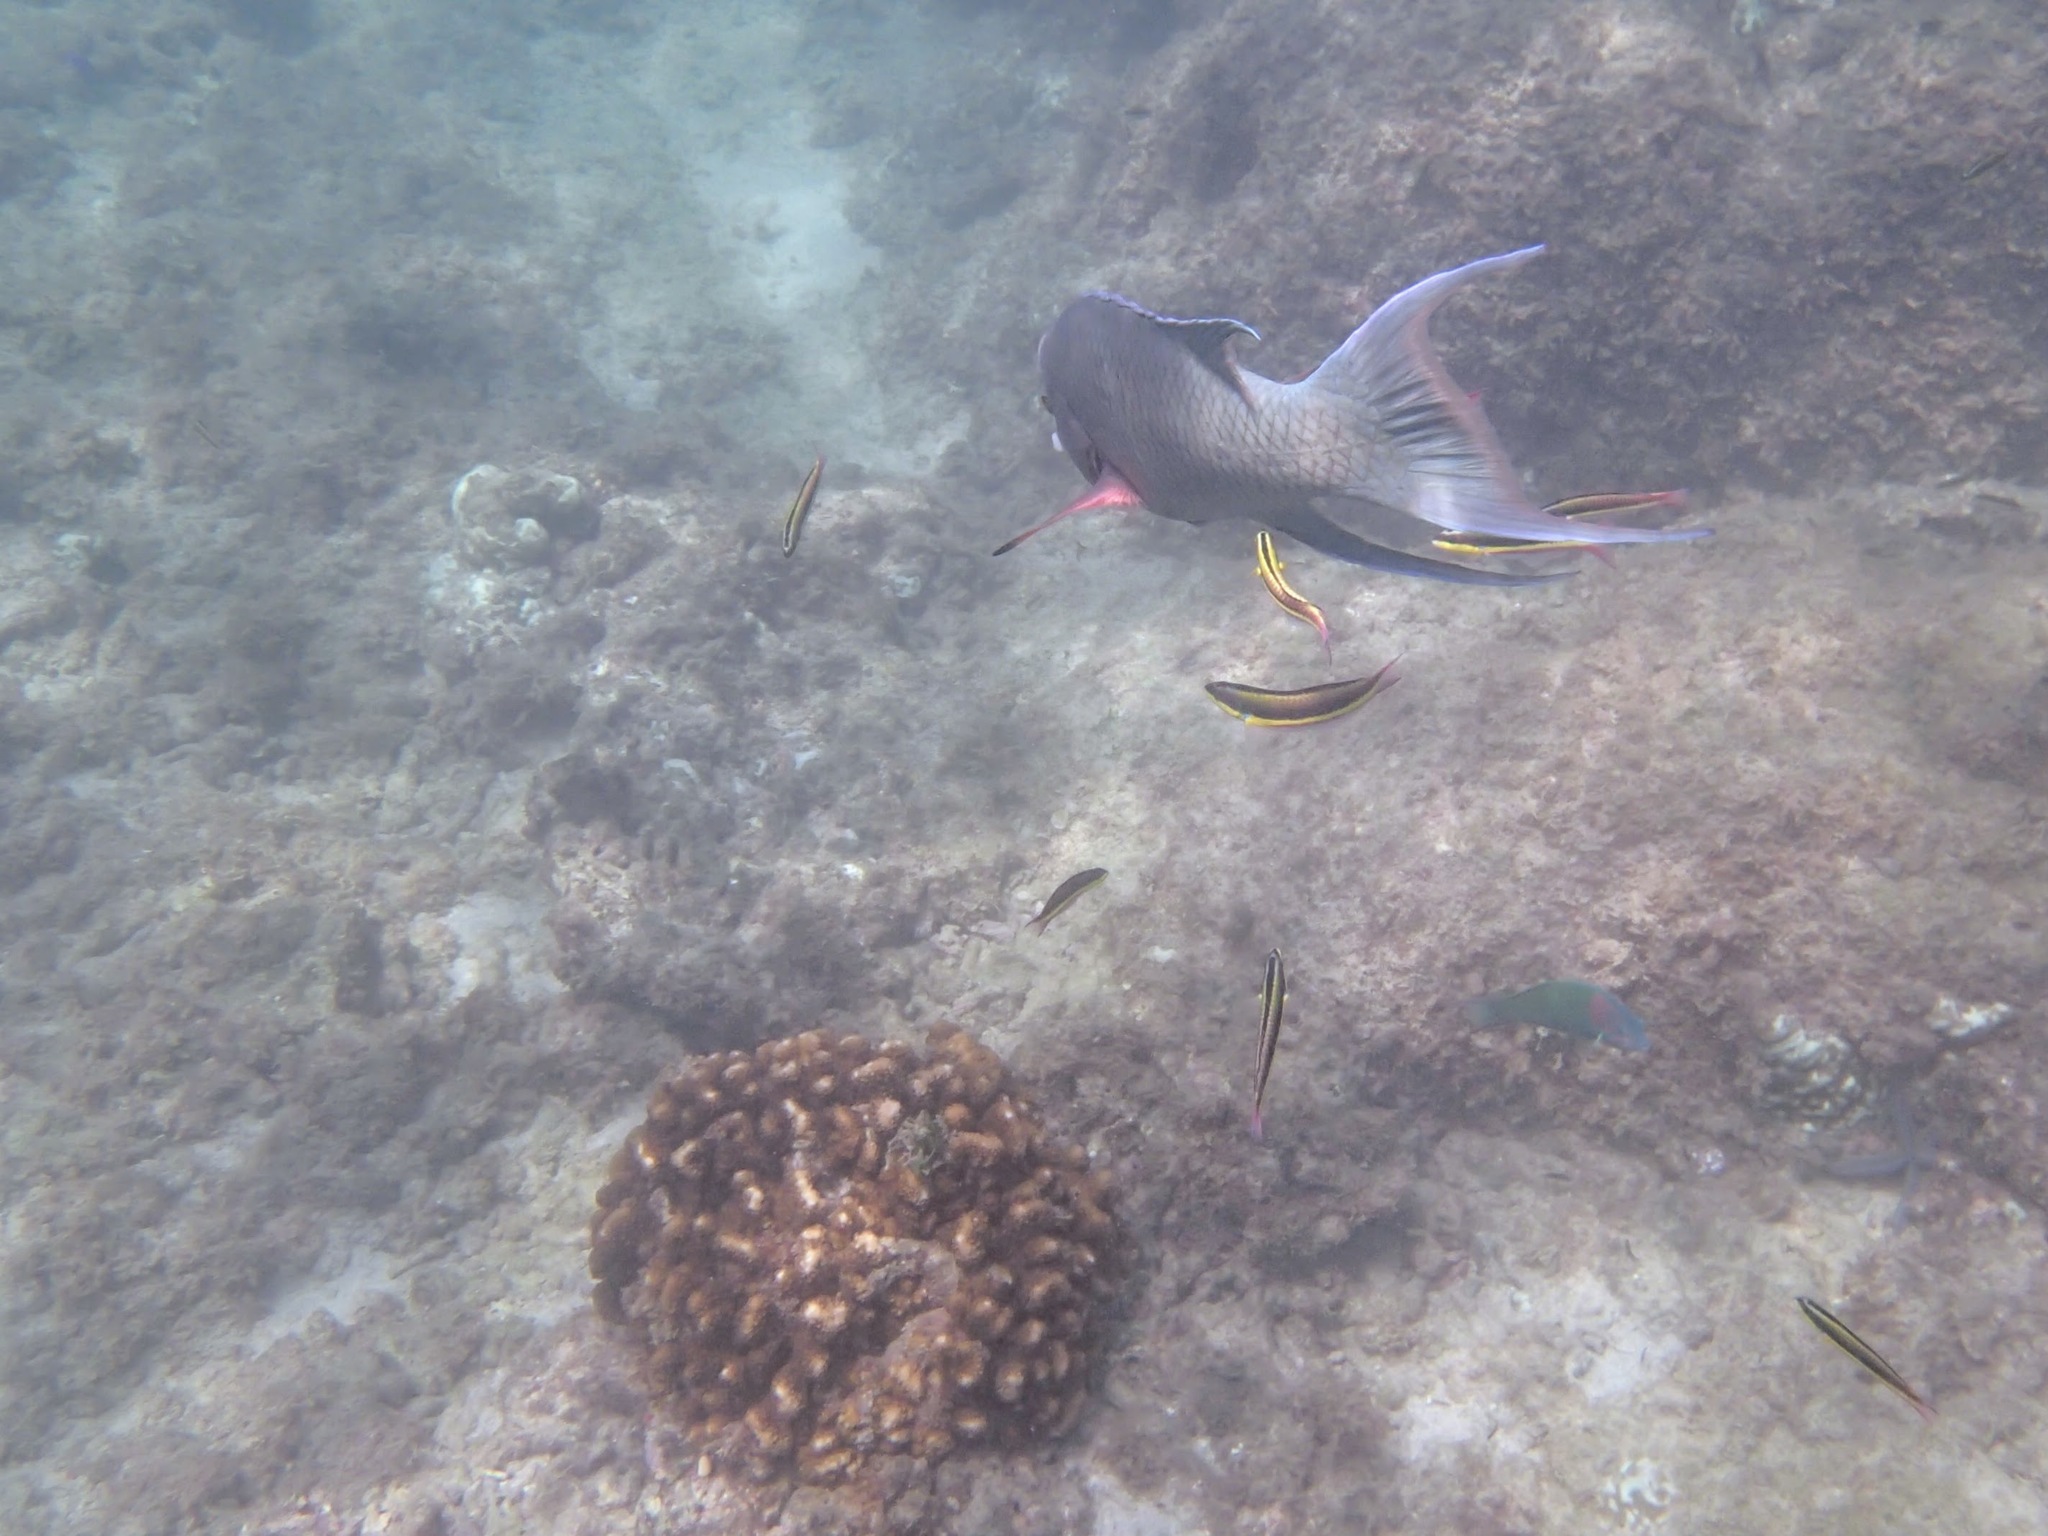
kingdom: Animalia
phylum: Chordata
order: Perciformes
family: Labridae
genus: Bodianus
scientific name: Bodianus diplotaenia
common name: Mexican hogfish
